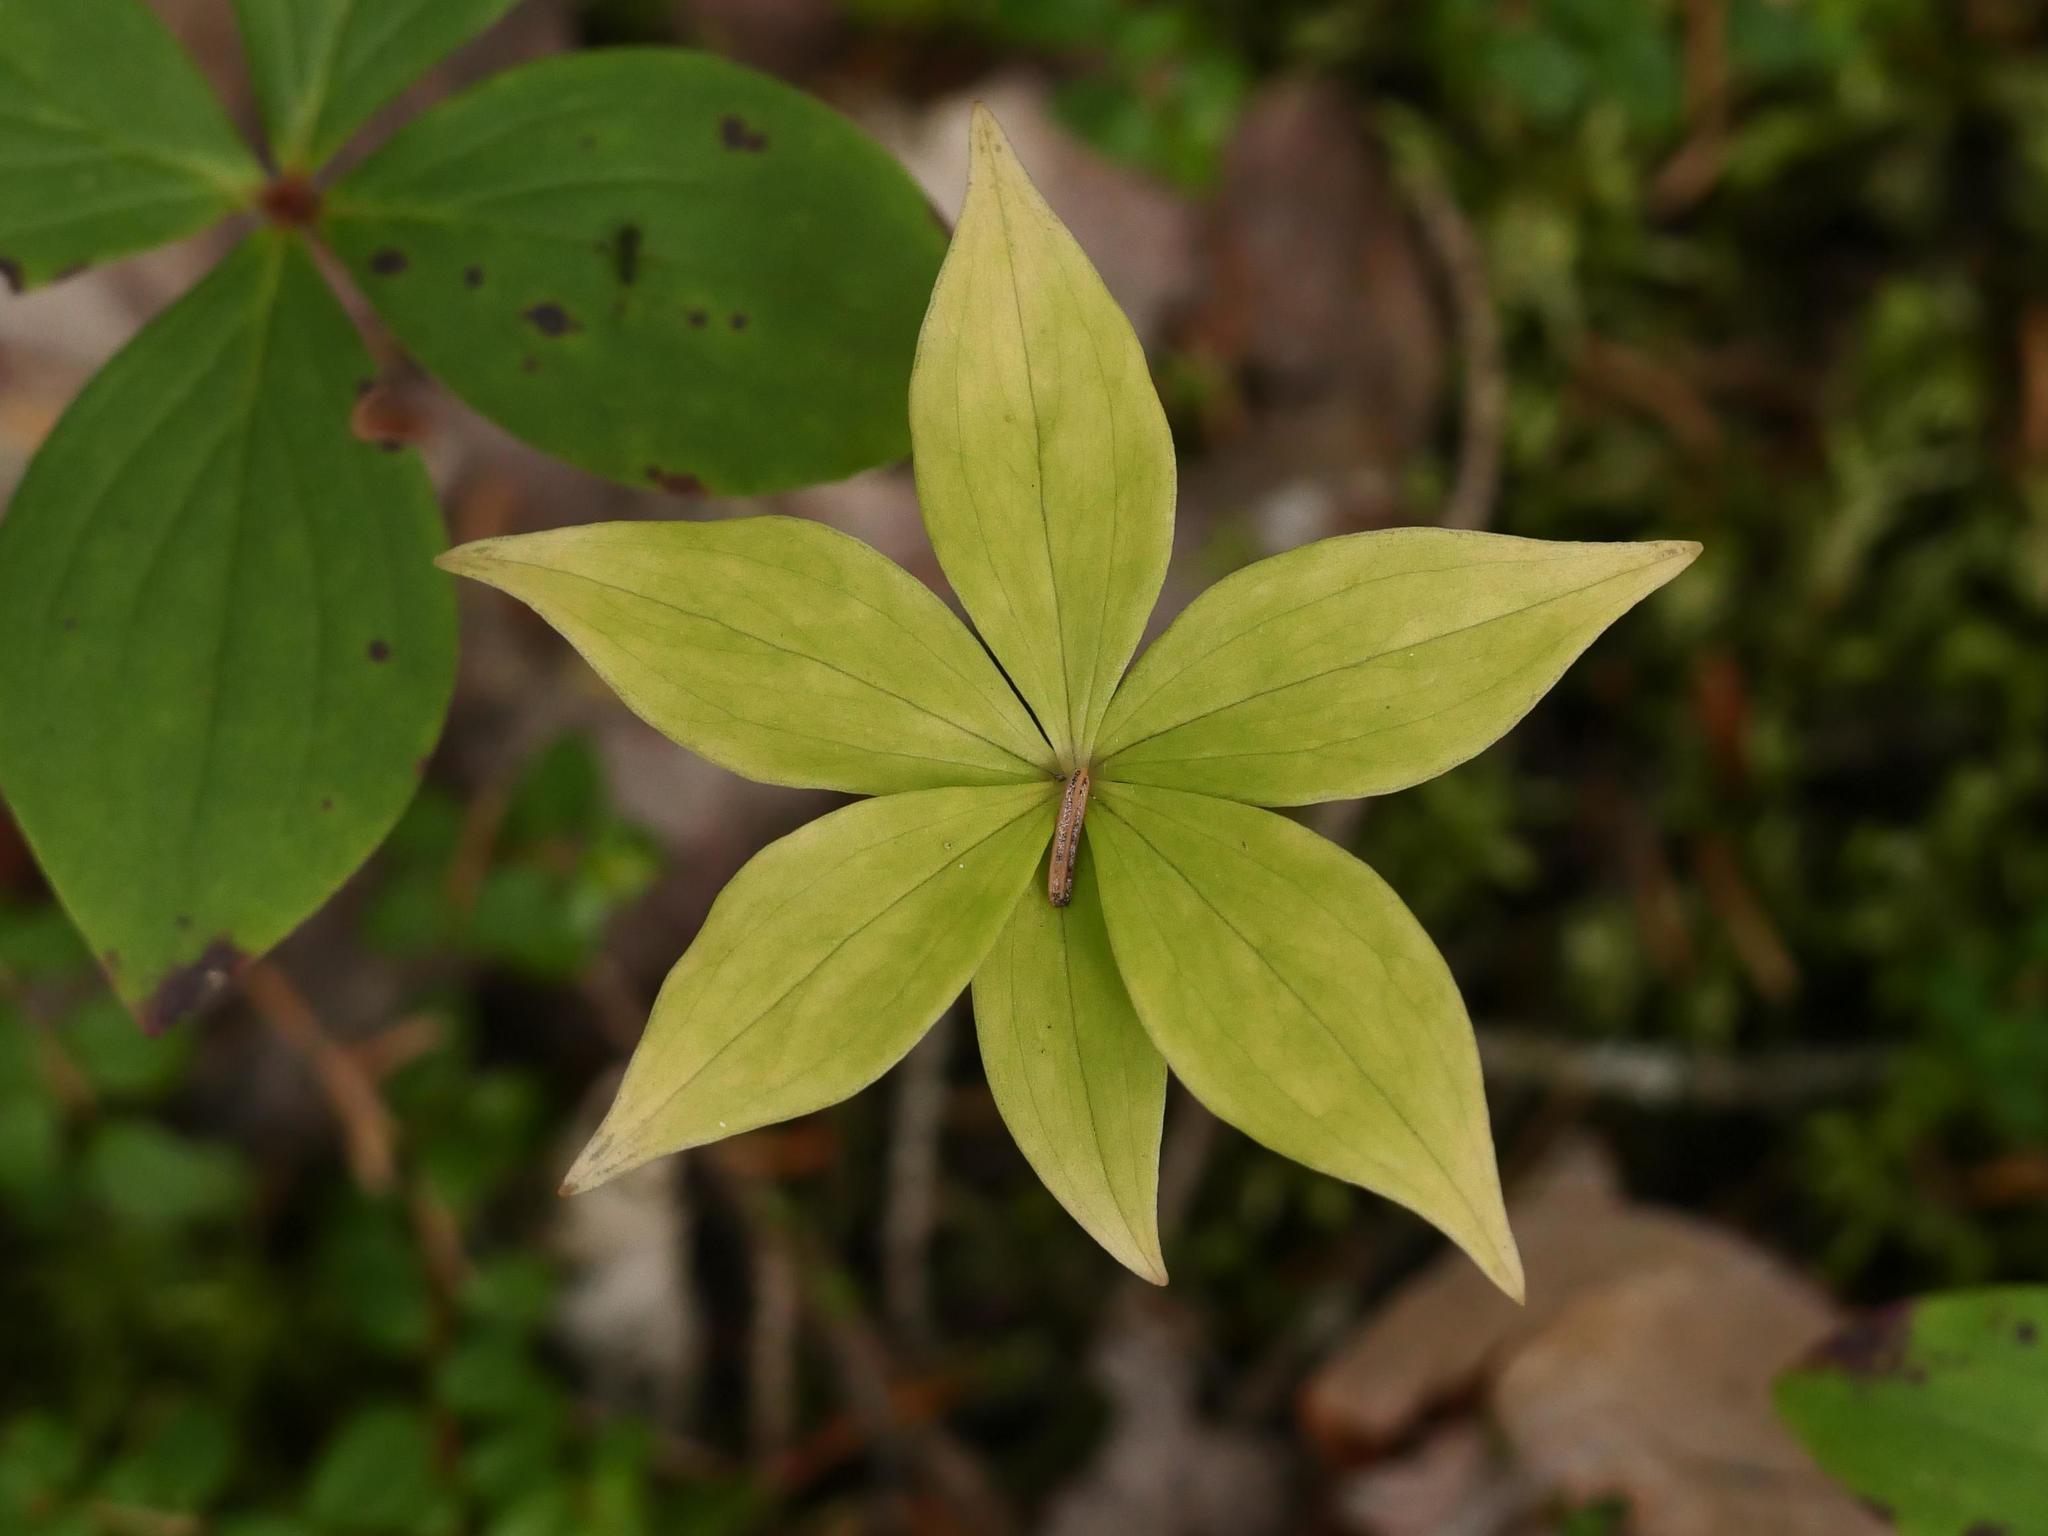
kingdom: Plantae
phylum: Tracheophyta
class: Liliopsida
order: Liliales
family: Liliaceae
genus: Medeola
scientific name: Medeola virginiana
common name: Indian cucumber-root
